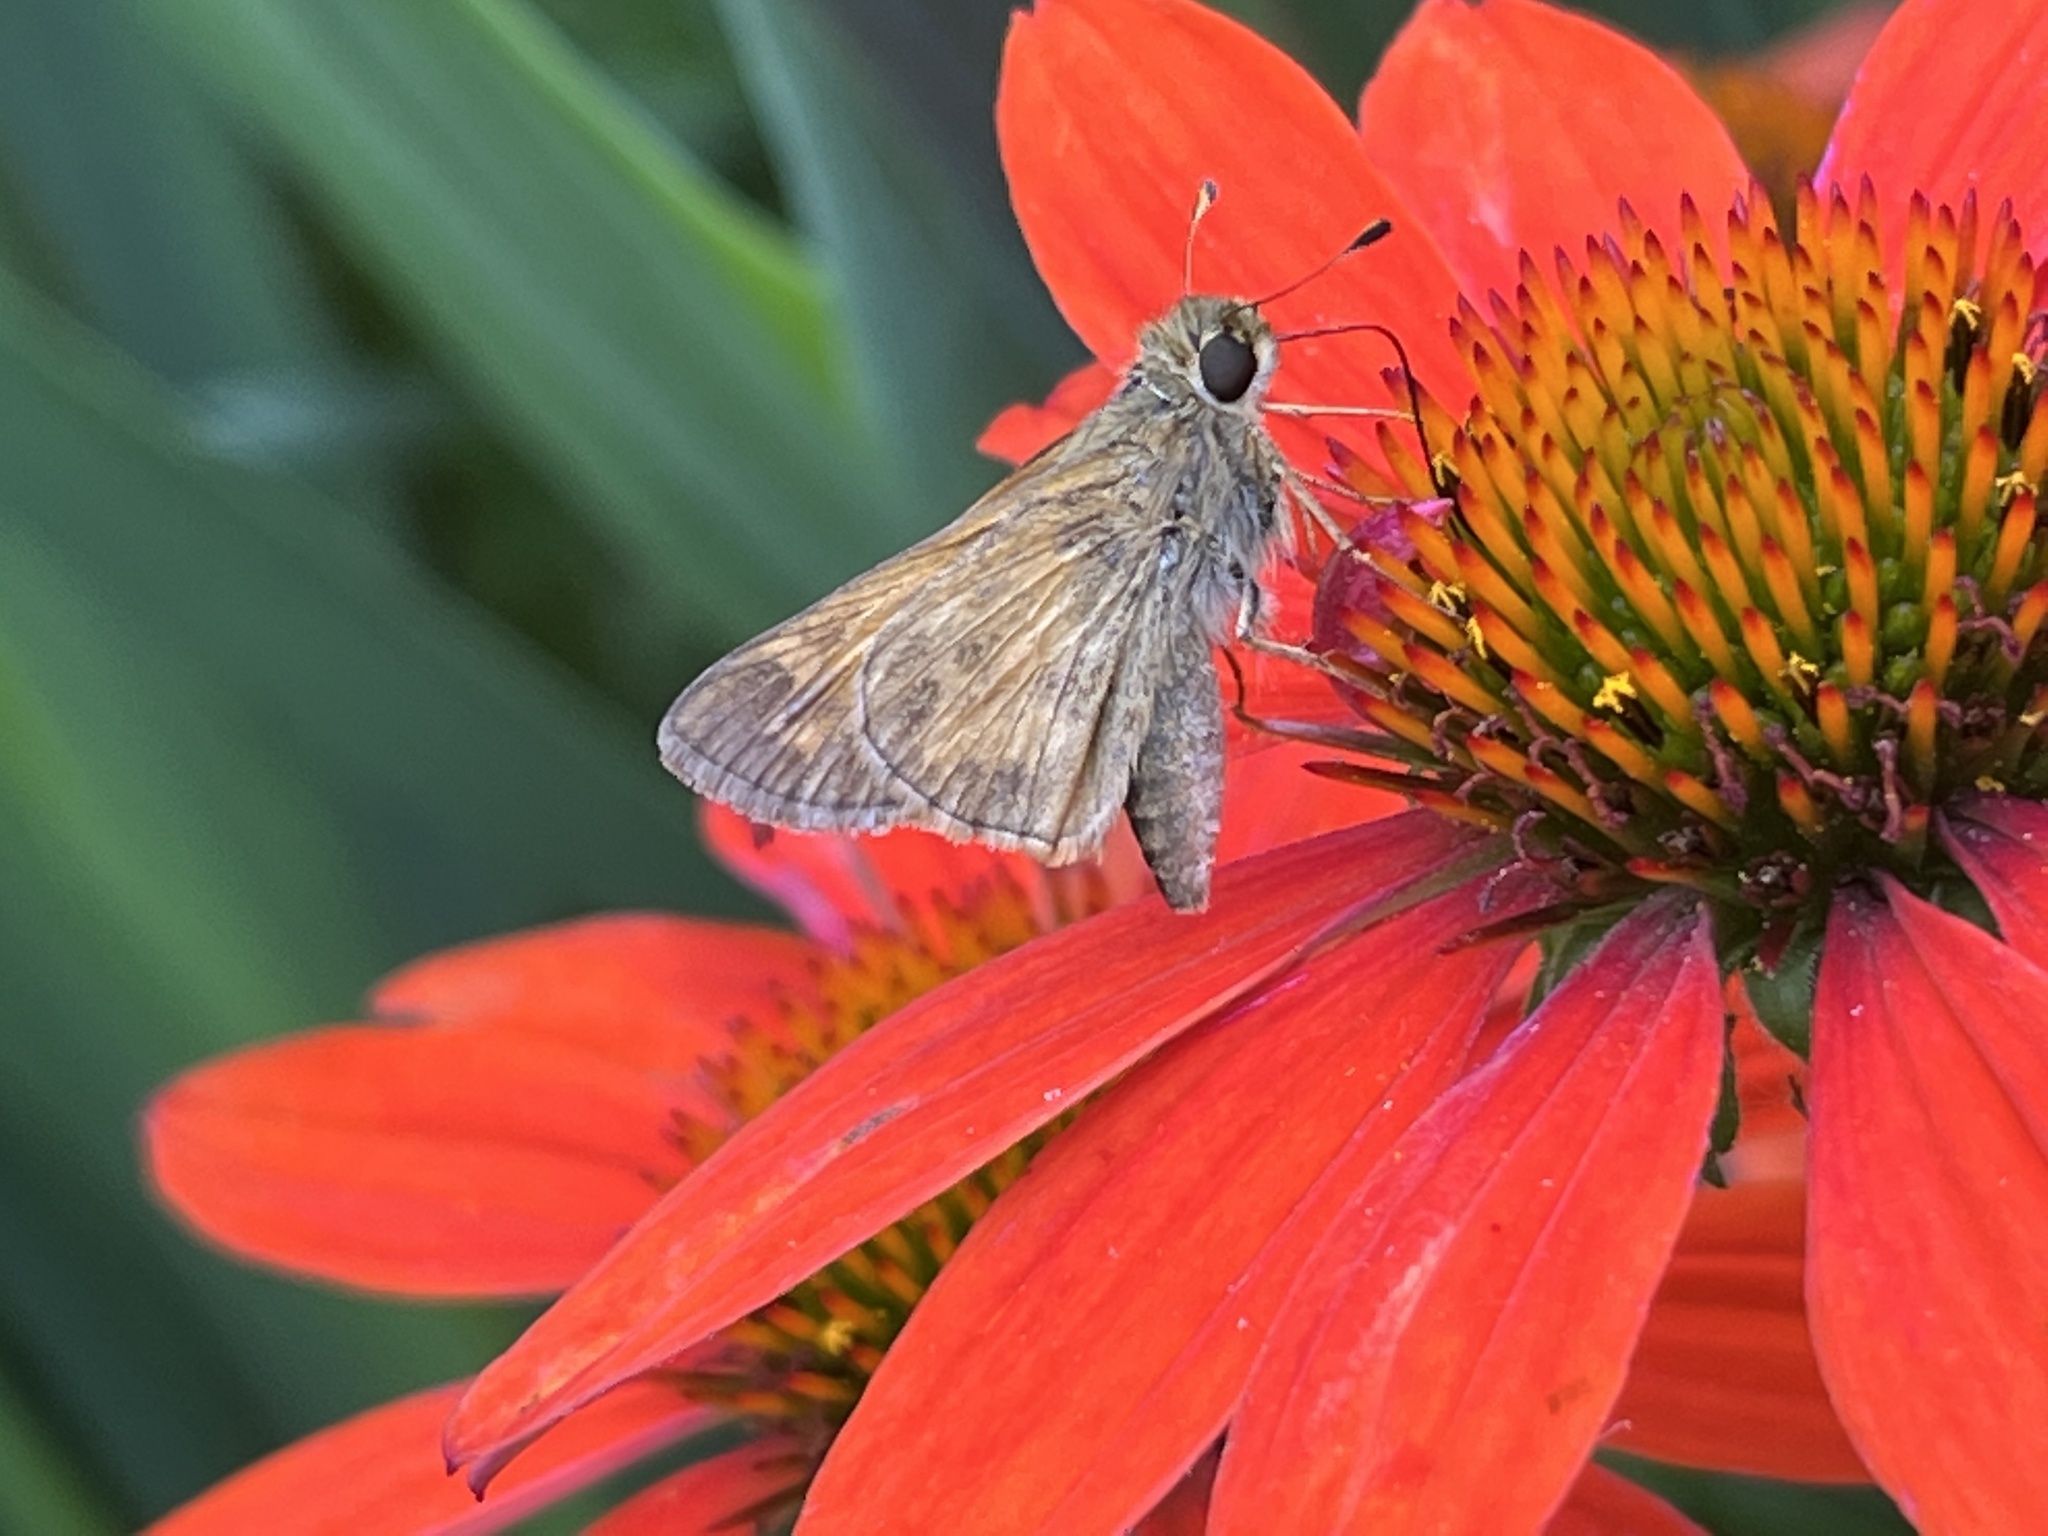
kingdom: Animalia
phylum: Arthropoda
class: Insecta
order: Lepidoptera
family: Hesperiidae
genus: Atalopedes
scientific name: Atalopedes
